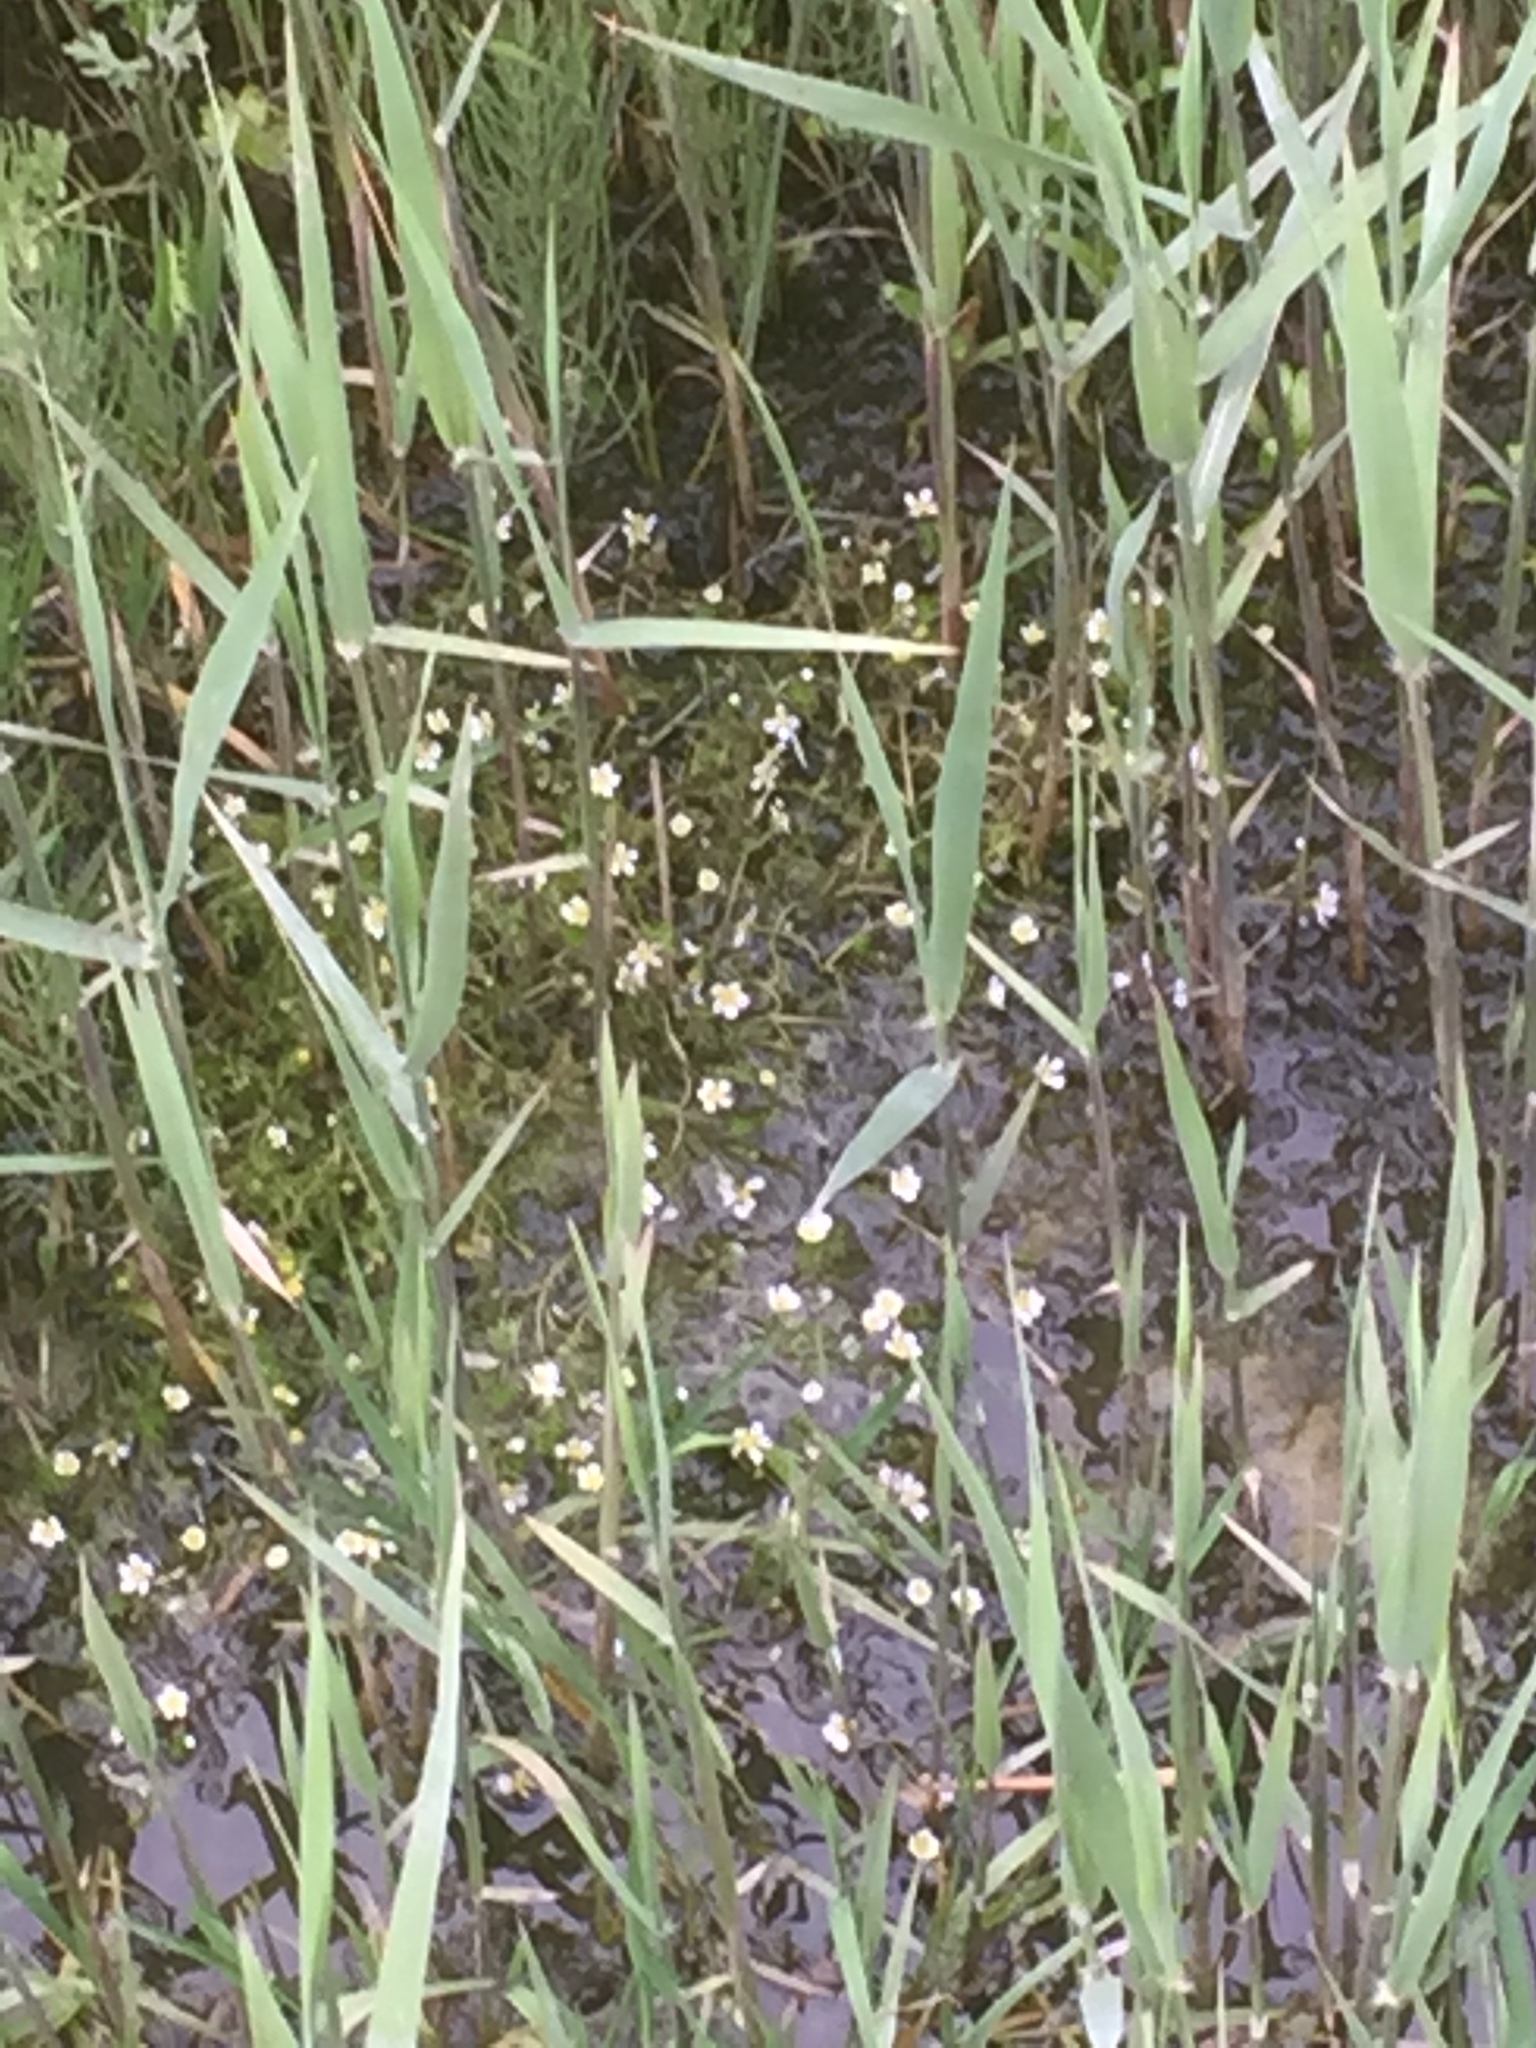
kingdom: Plantae
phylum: Tracheophyta
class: Magnoliopsida
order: Ranunculales
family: Ranunculaceae
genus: Ranunculus
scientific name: Ranunculus aquatilis
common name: Common water-crowfoot
